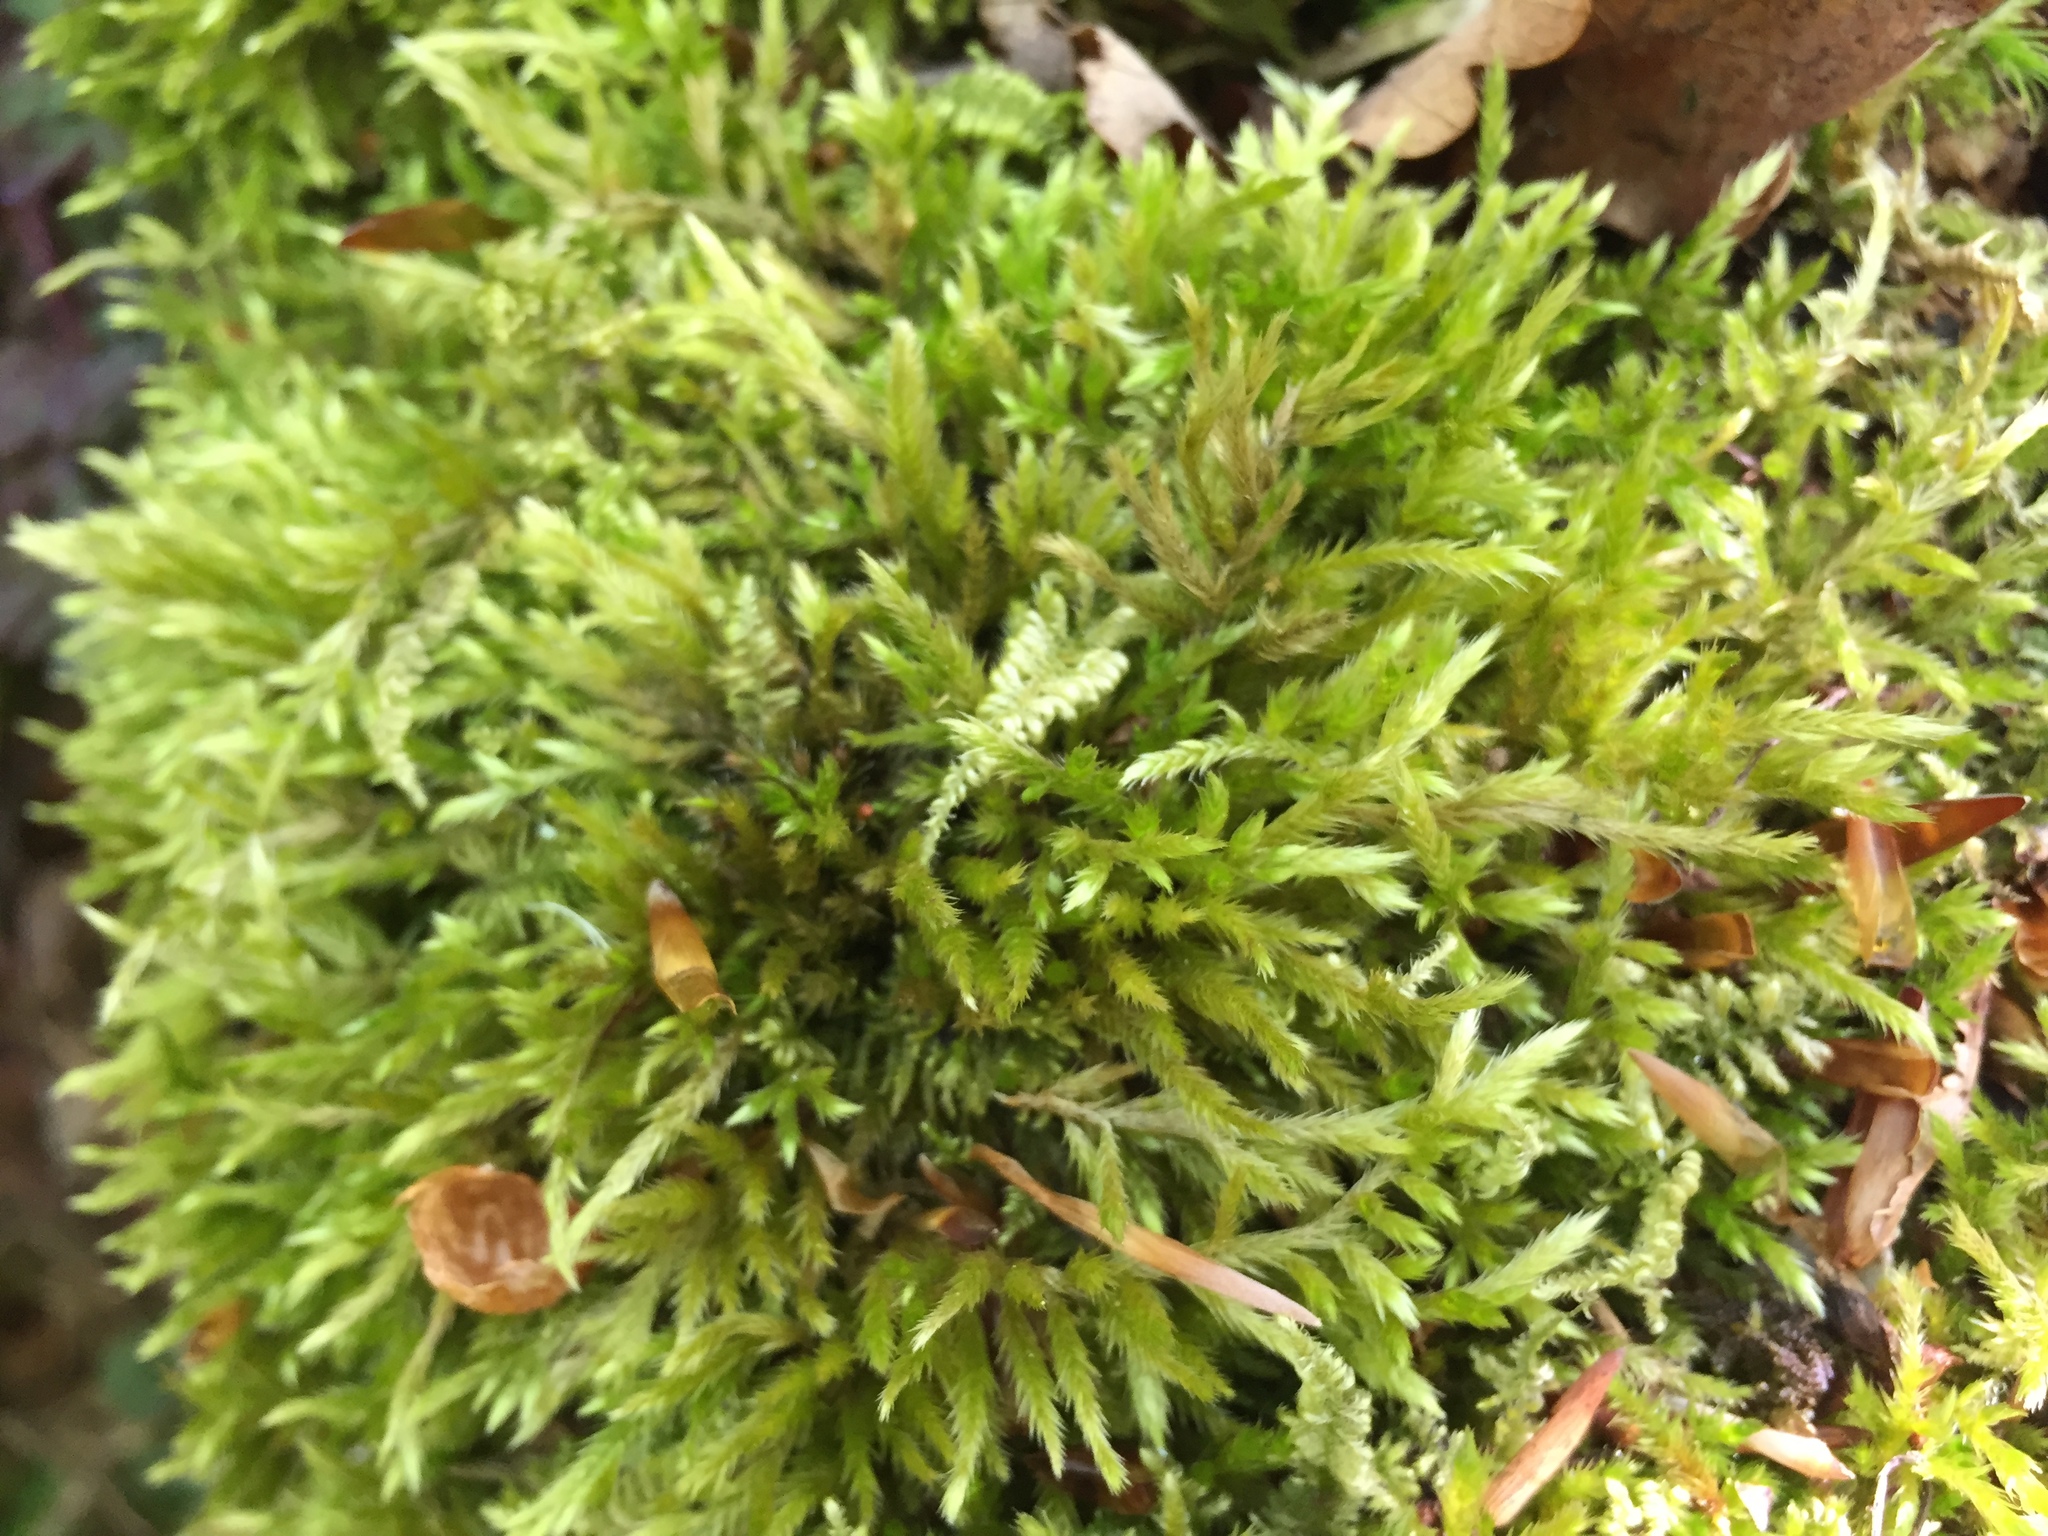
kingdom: Plantae
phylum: Bryophyta
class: Bryopsida
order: Hypnales
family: Hypnaceae
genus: Hypnum
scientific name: Hypnum cupressiforme
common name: Cypress-leaved plait-moss
